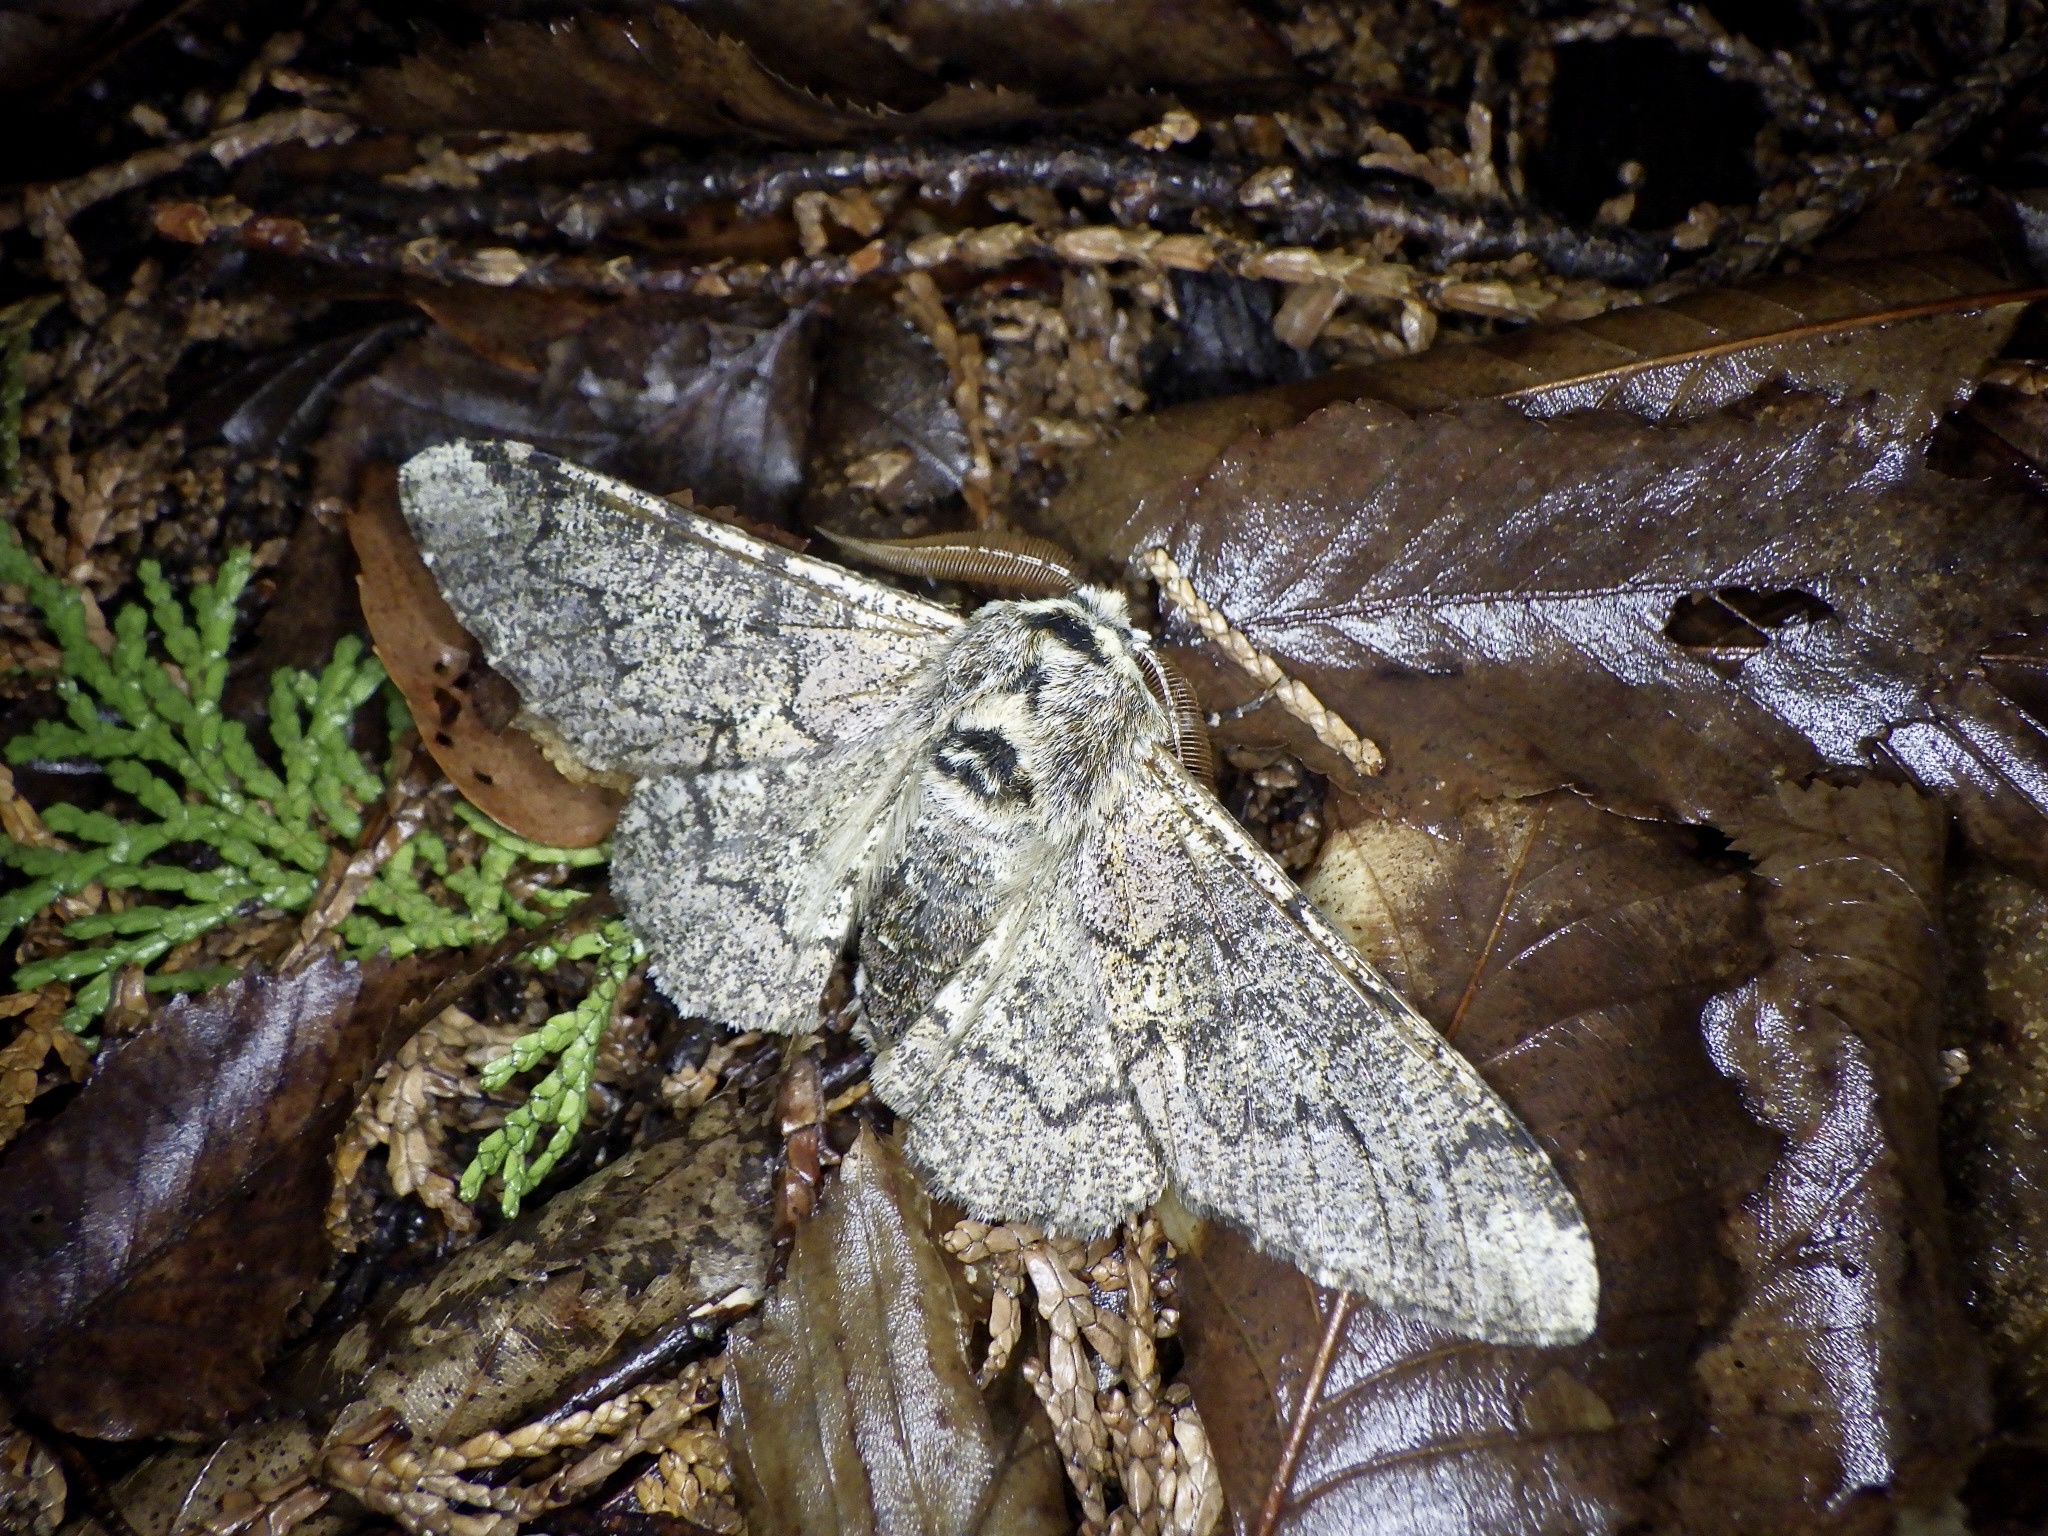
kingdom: Animalia
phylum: Arthropoda
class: Insecta
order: Lepidoptera
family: Geometridae
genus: Biston
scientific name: Biston robustum
